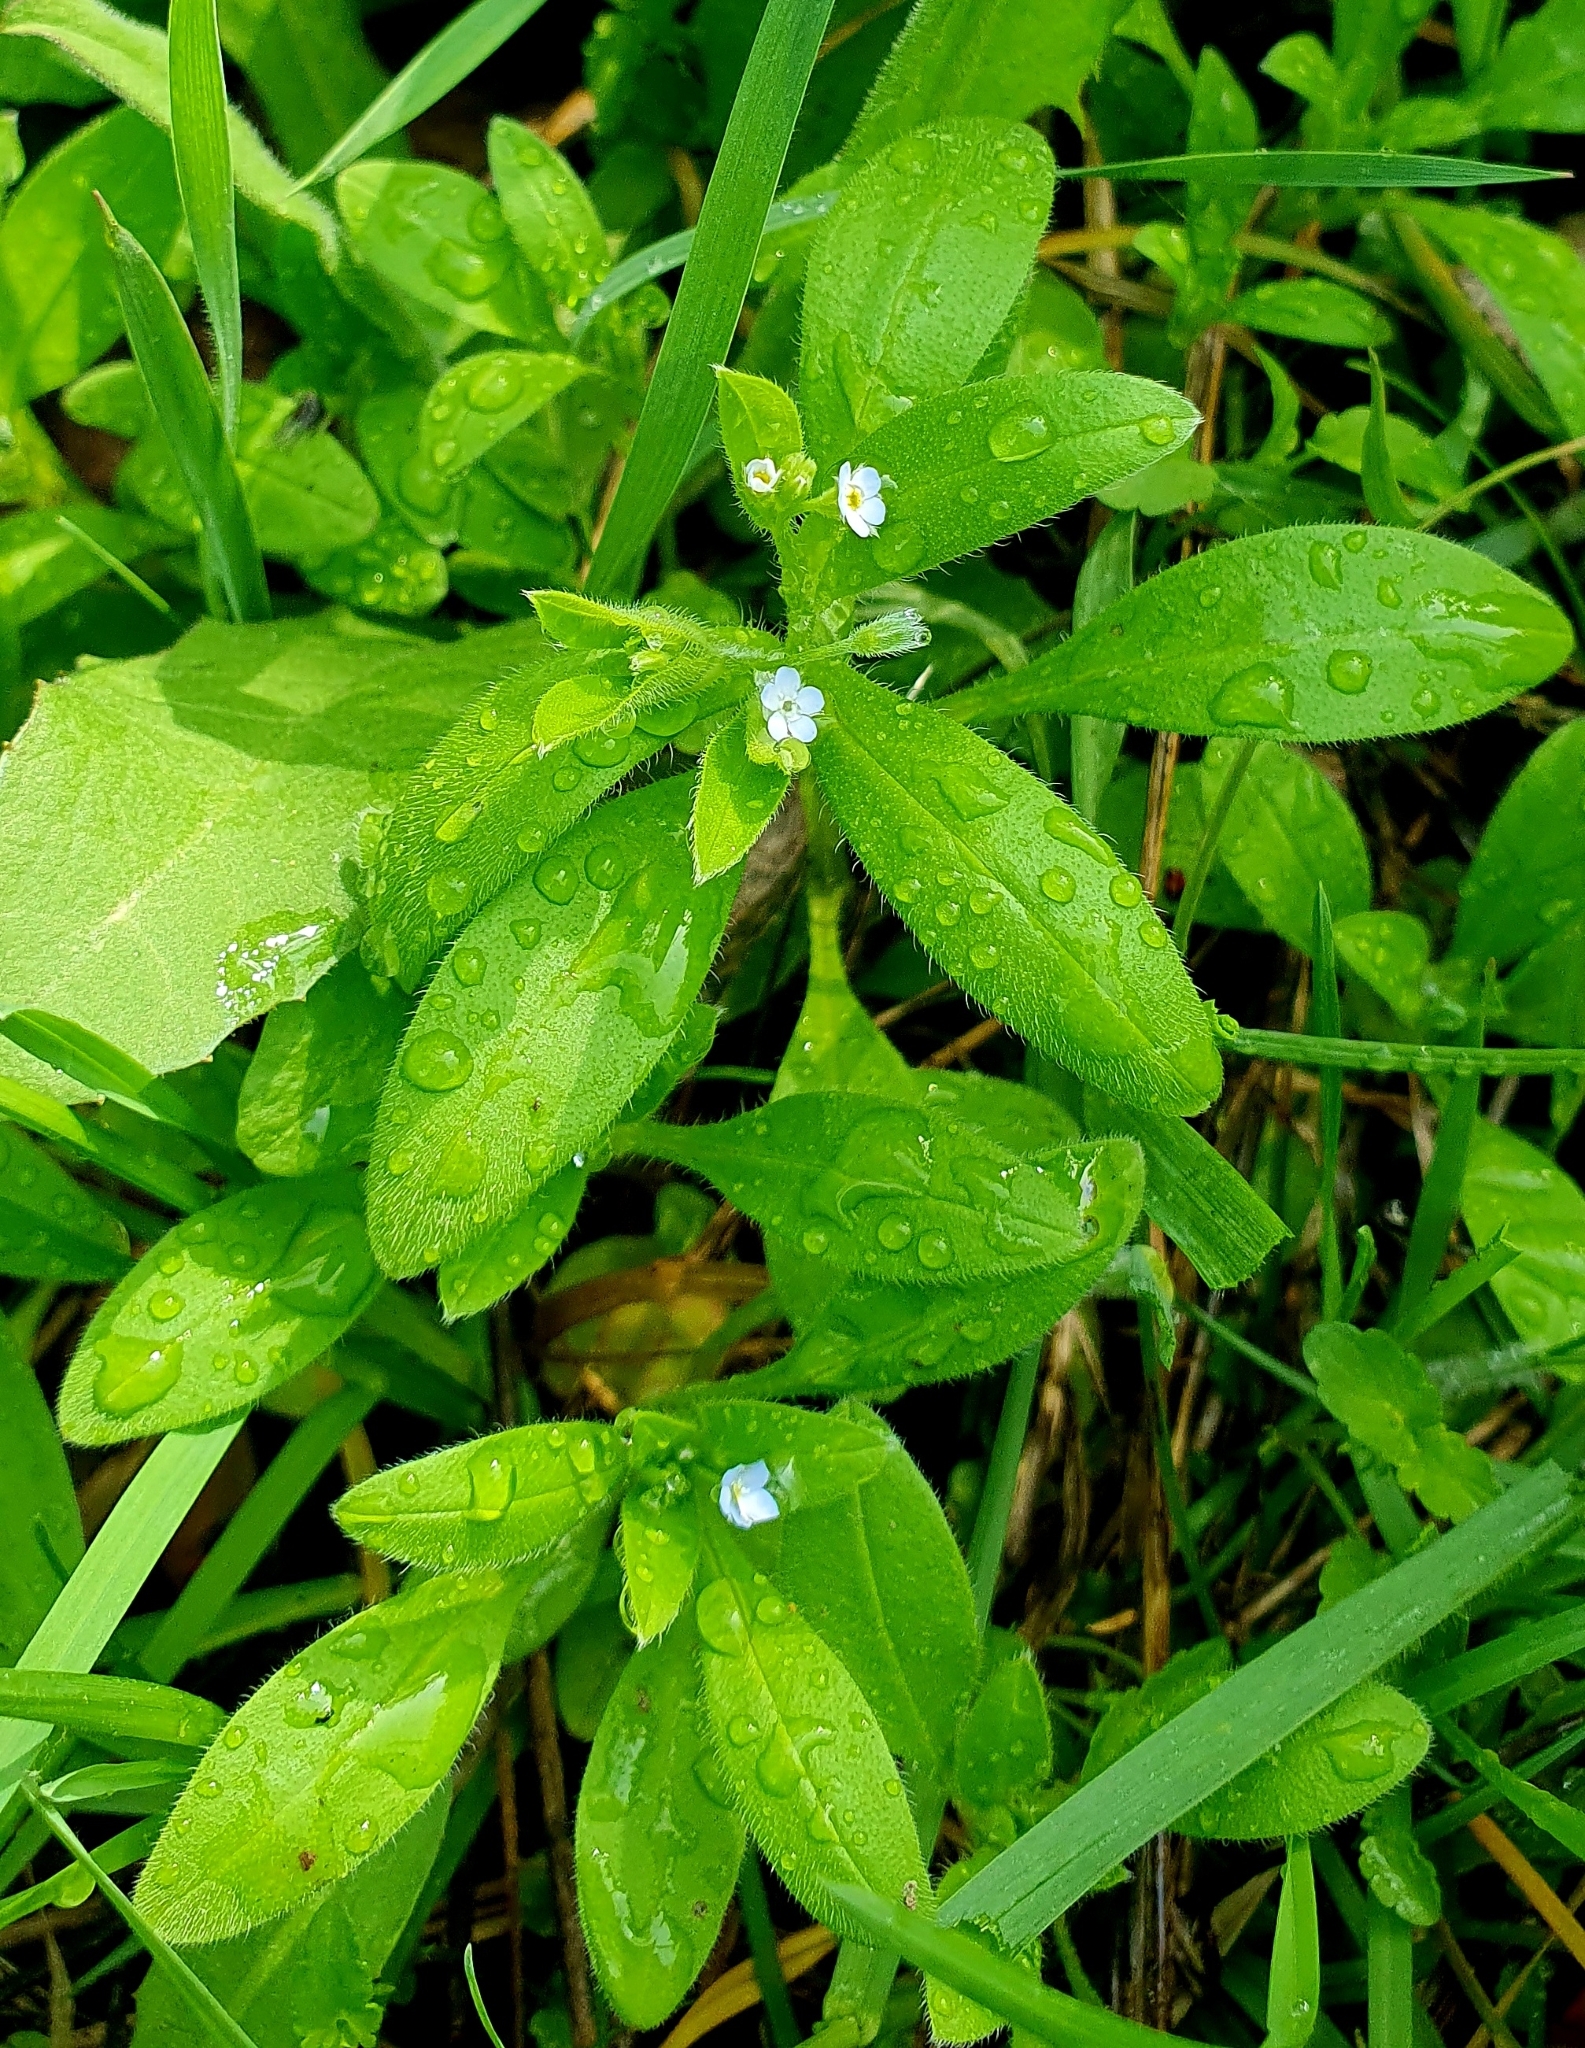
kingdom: Plantae
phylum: Tracheophyta
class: Magnoliopsida
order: Boraginales
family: Boraginaceae
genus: Myosotis
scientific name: Myosotis sparsiflora
